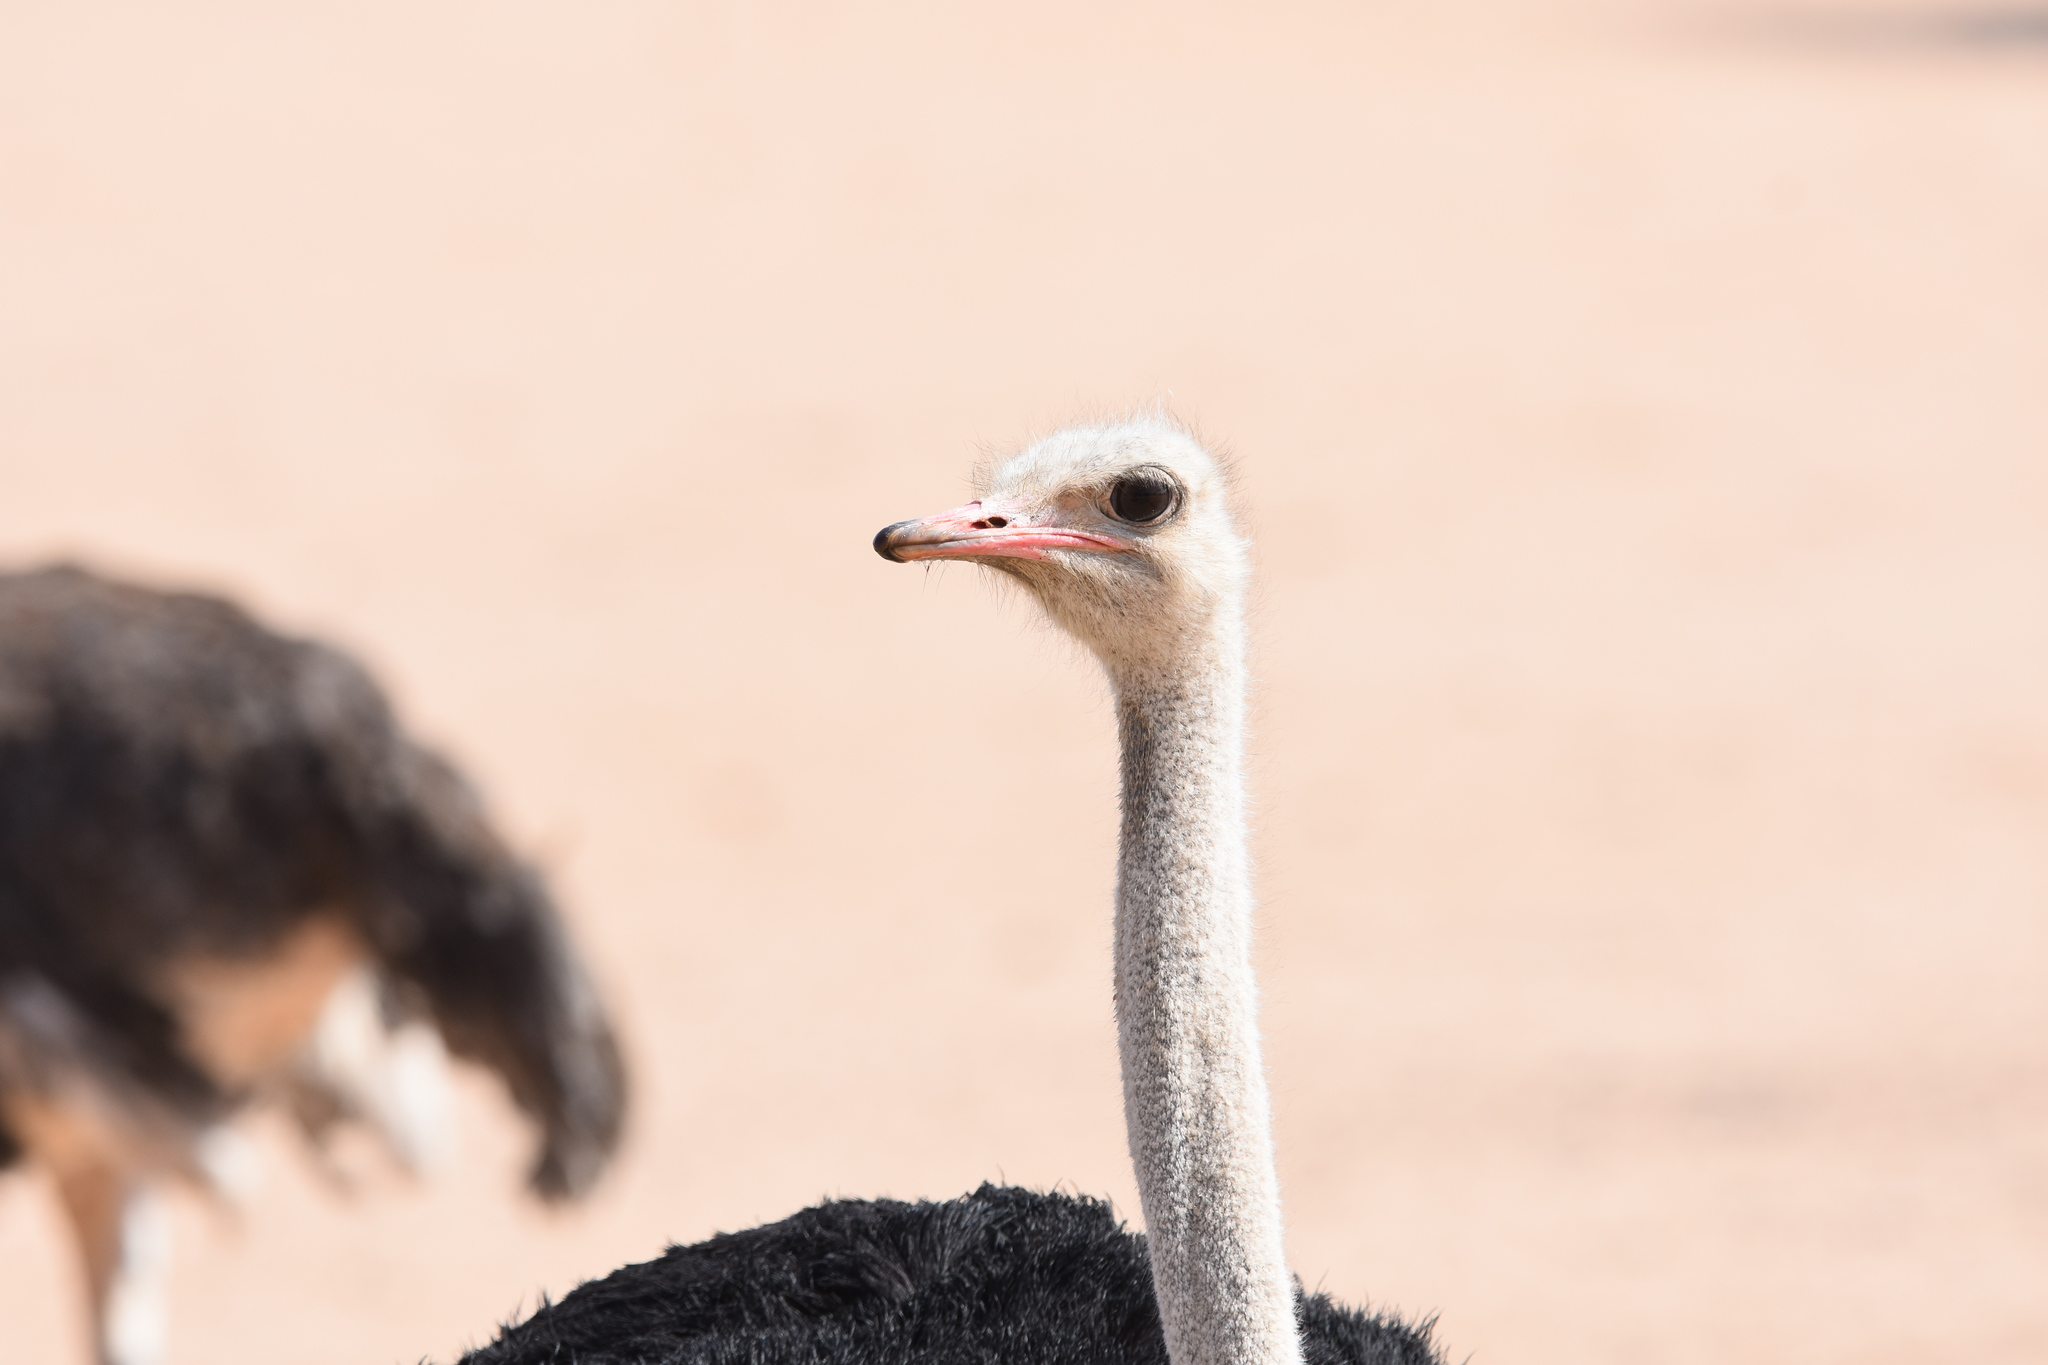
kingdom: Animalia
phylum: Chordata
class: Aves
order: Struthioniformes
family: Struthionidae
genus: Struthio
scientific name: Struthio camelus
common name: Common ostrich
